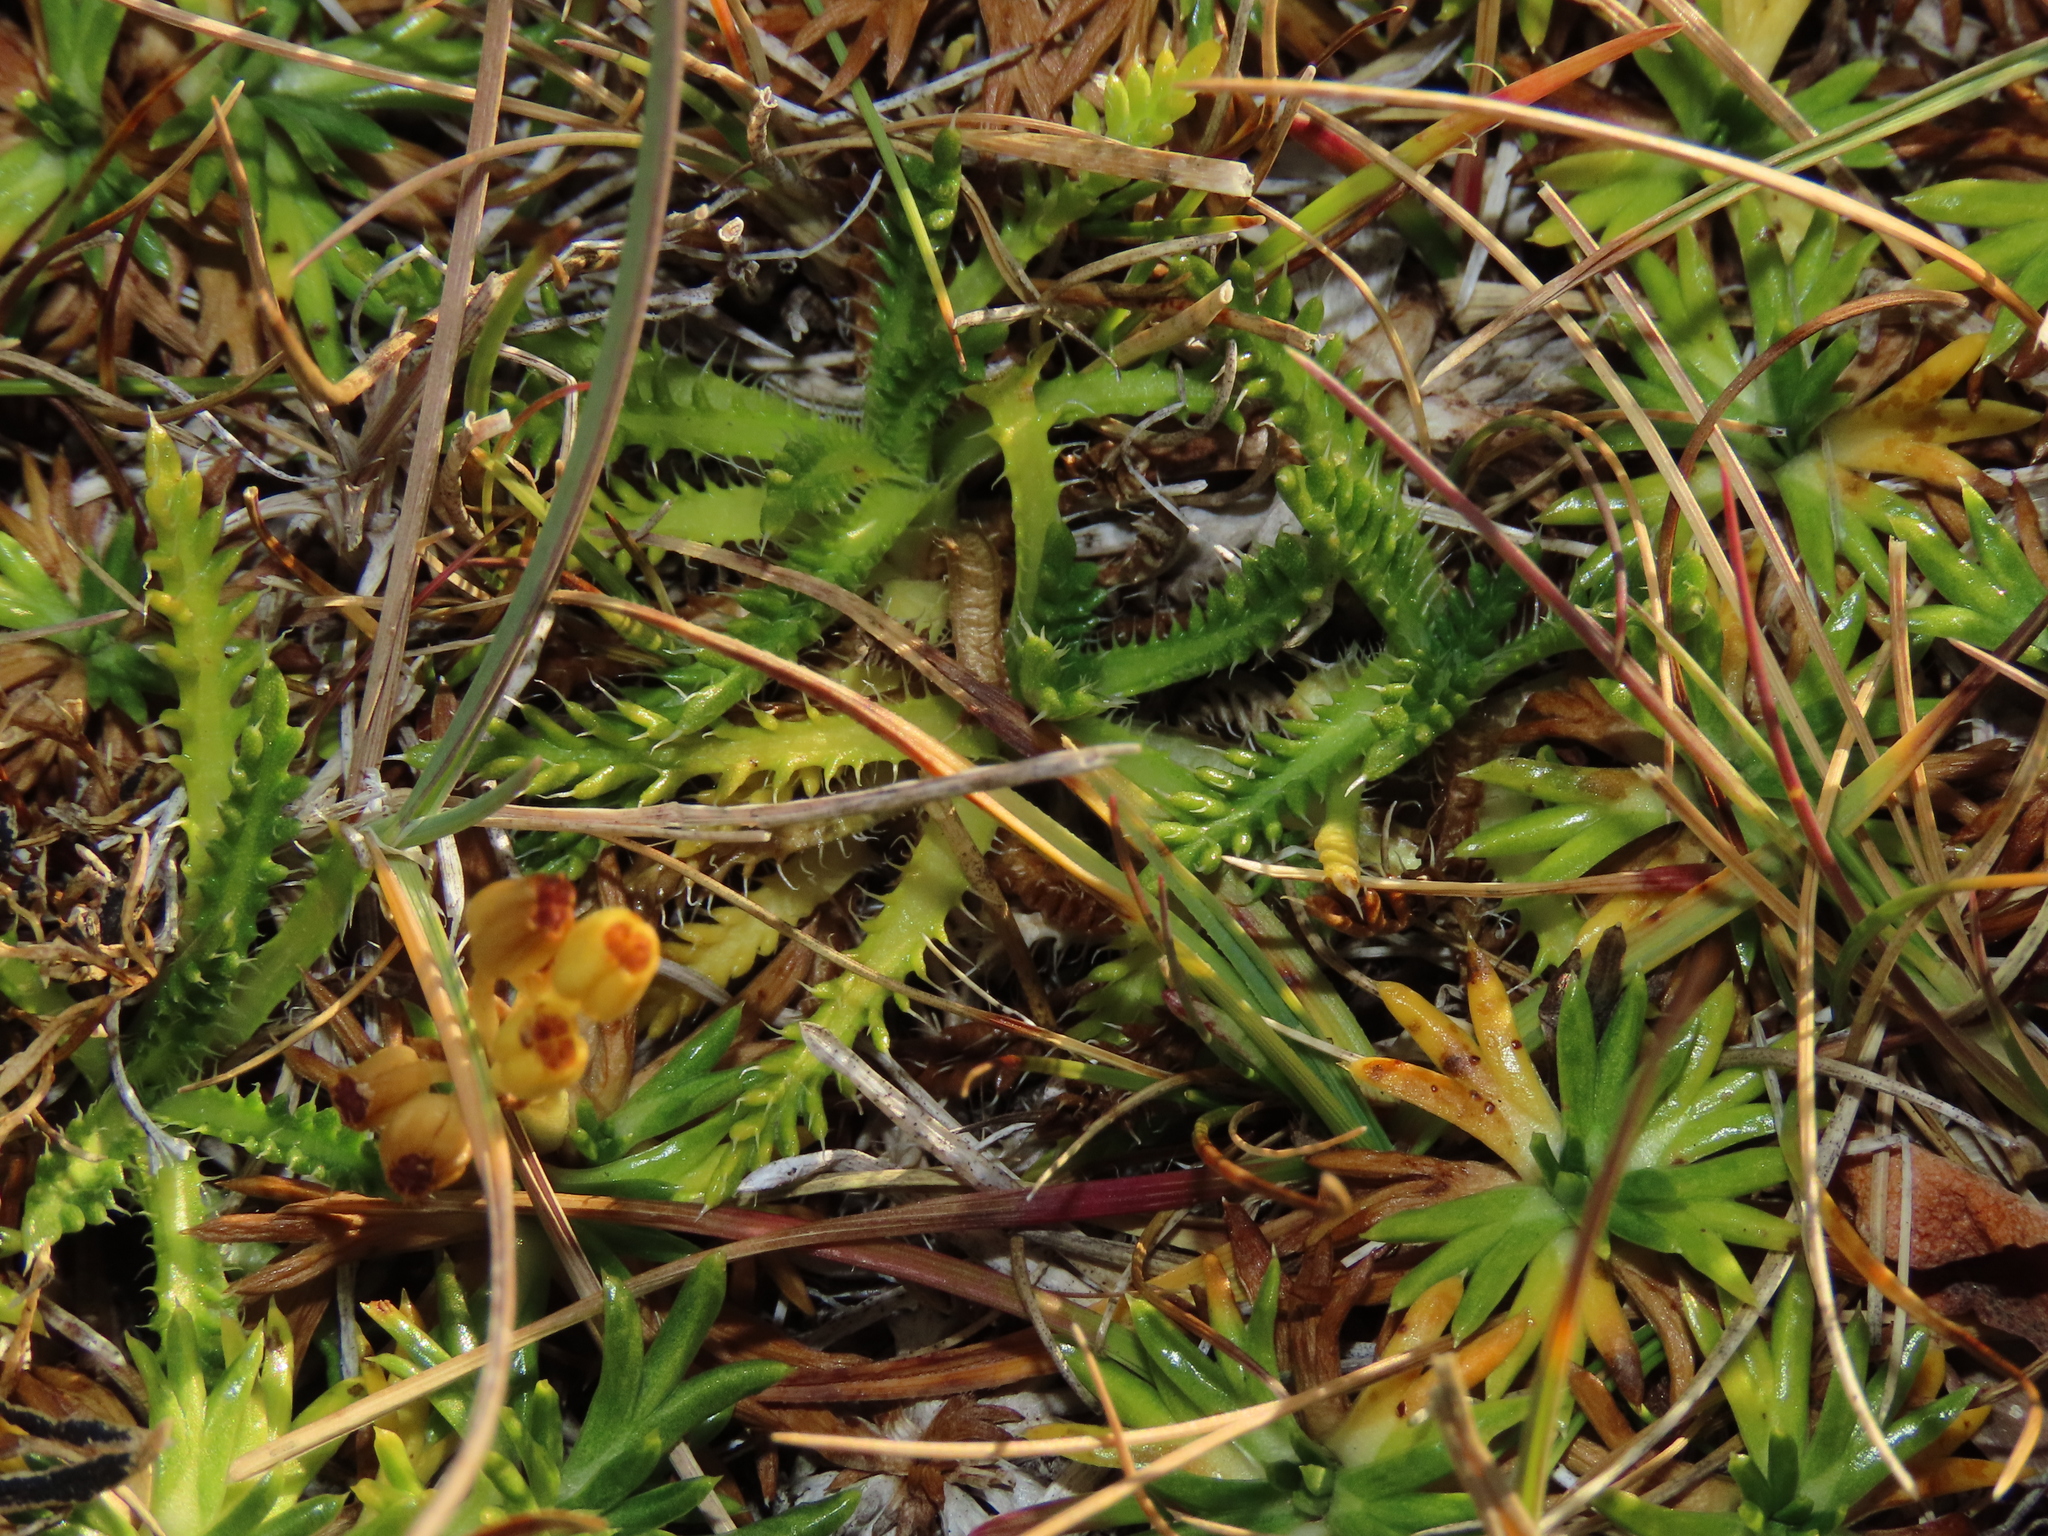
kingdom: Plantae
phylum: Tracheophyta
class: Magnoliopsida
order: Asterales
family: Asteraceae
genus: Perezia
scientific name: Perezia pilifera
